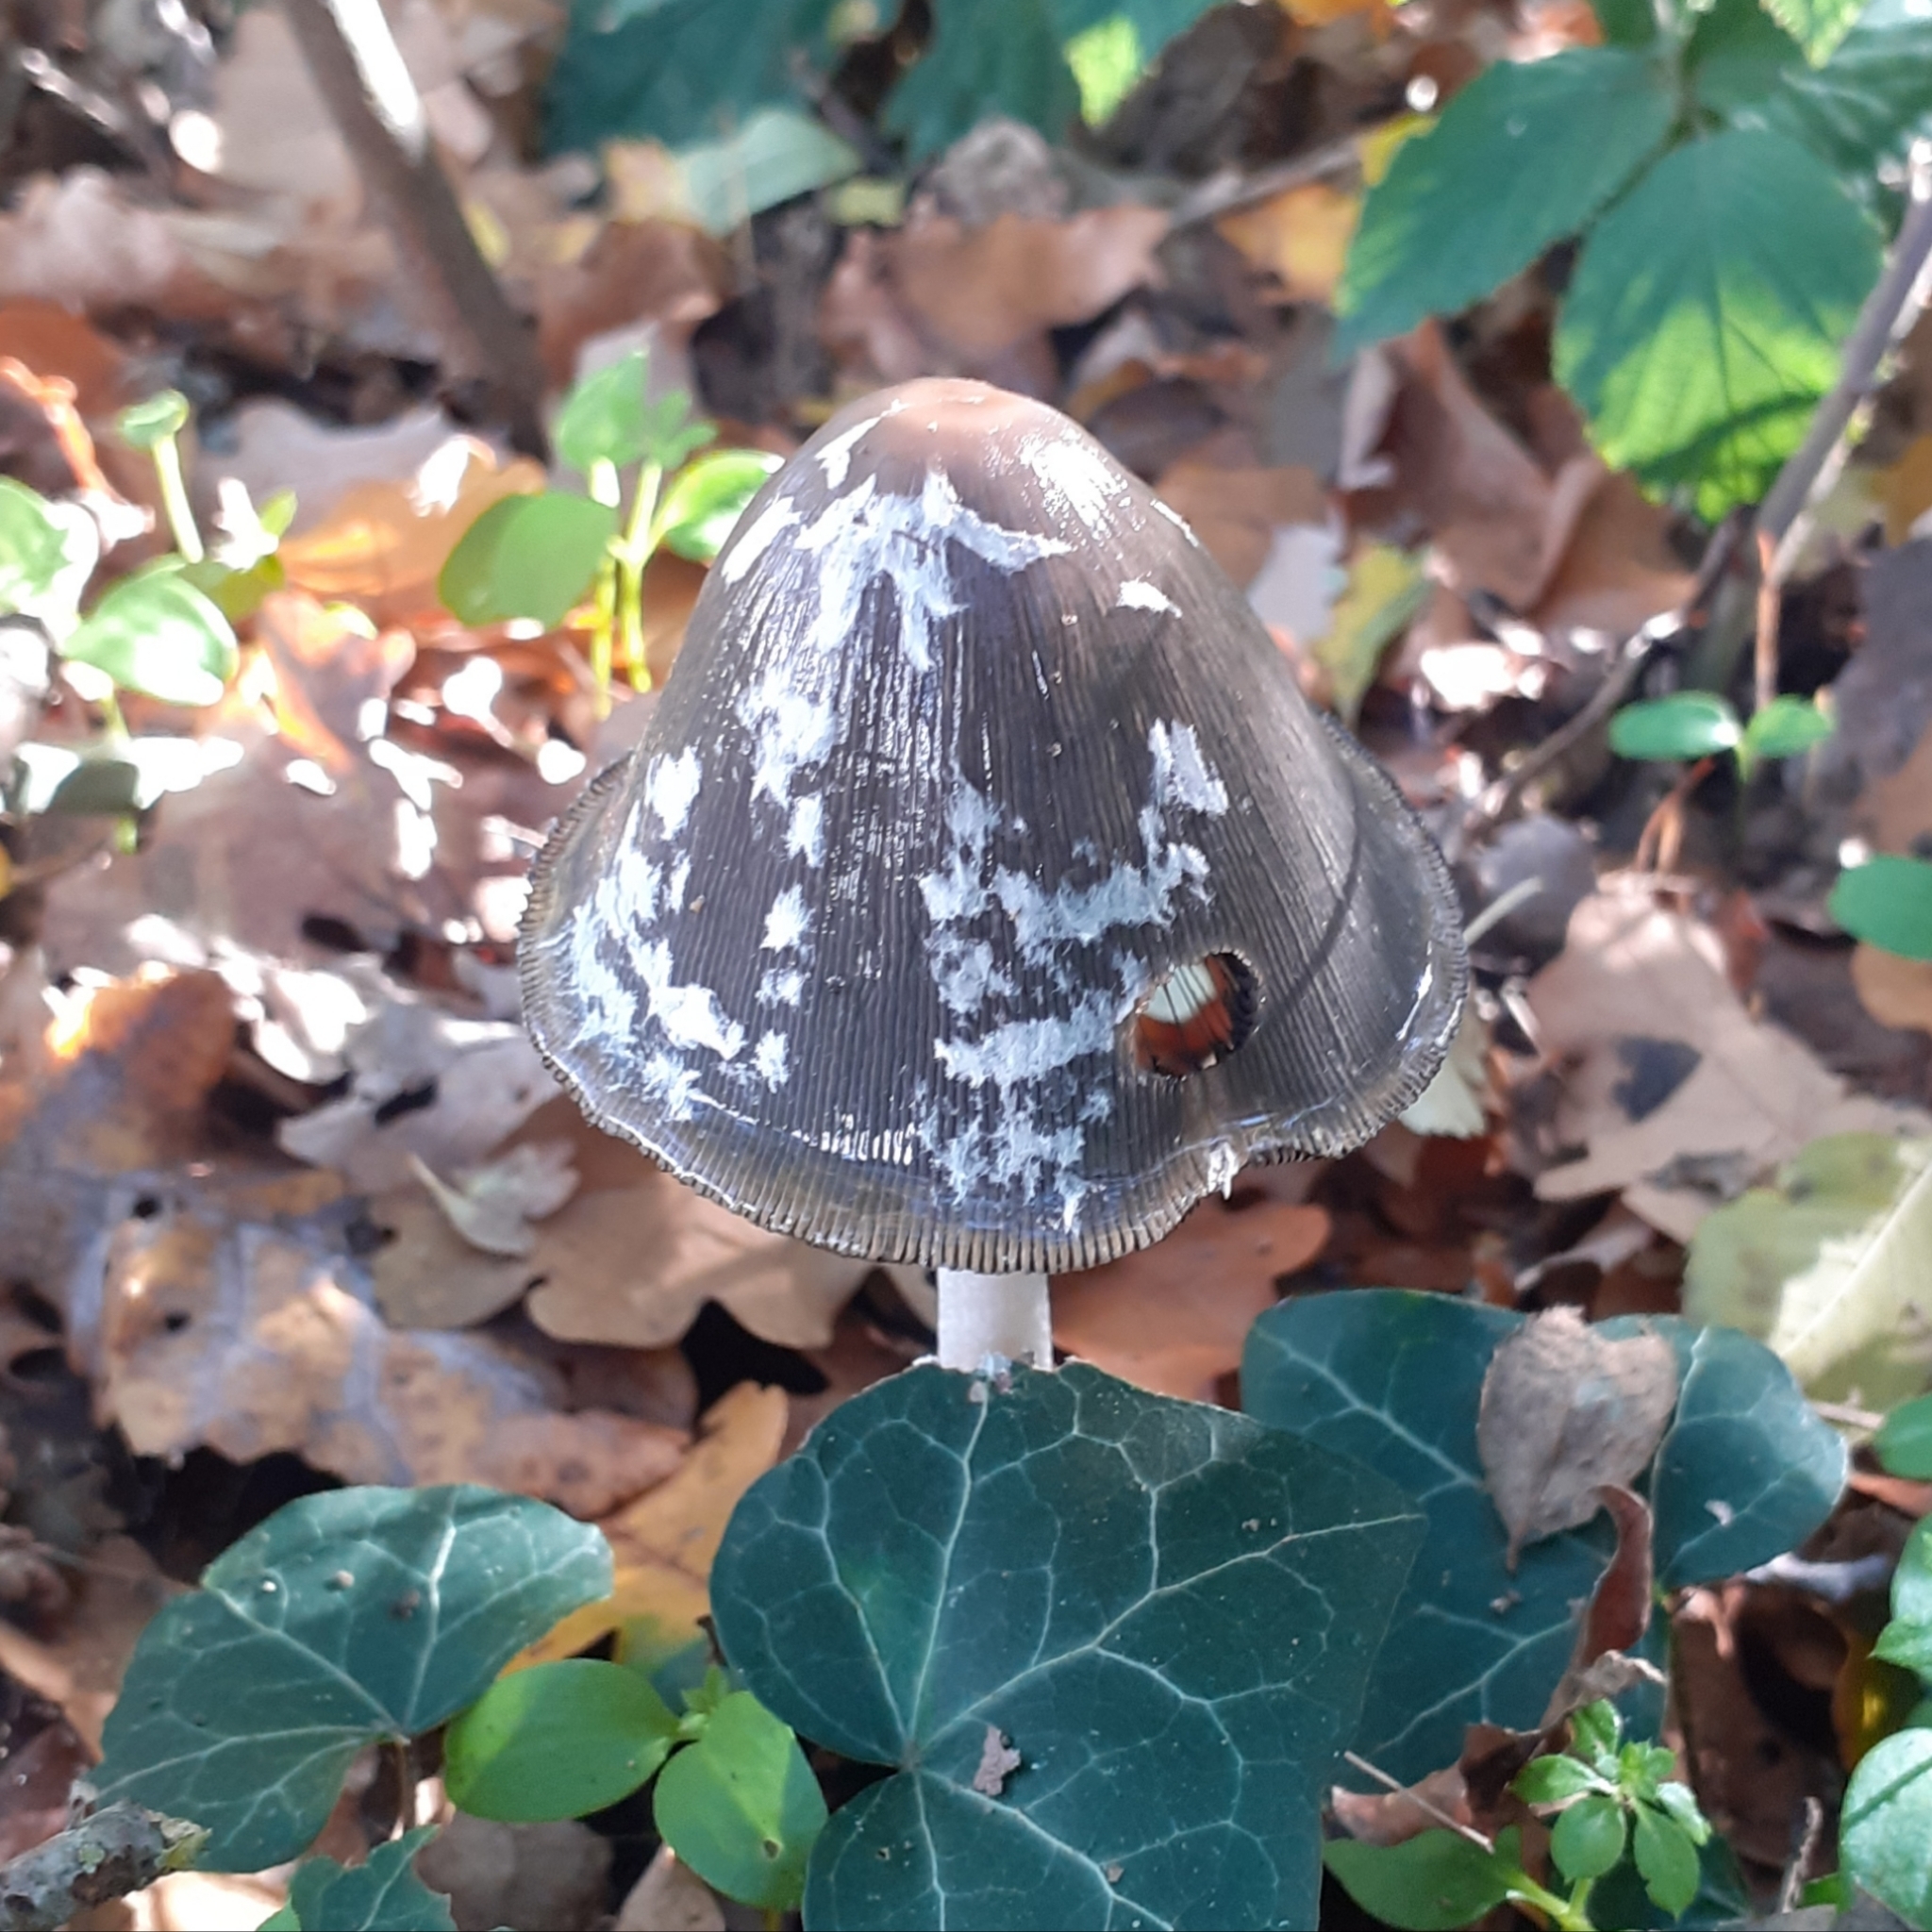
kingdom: Fungi
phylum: Basidiomycota
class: Agaricomycetes
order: Agaricales
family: Psathyrellaceae
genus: Coprinopsis
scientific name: Coprinopsis picacea
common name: Magpie inkcap
